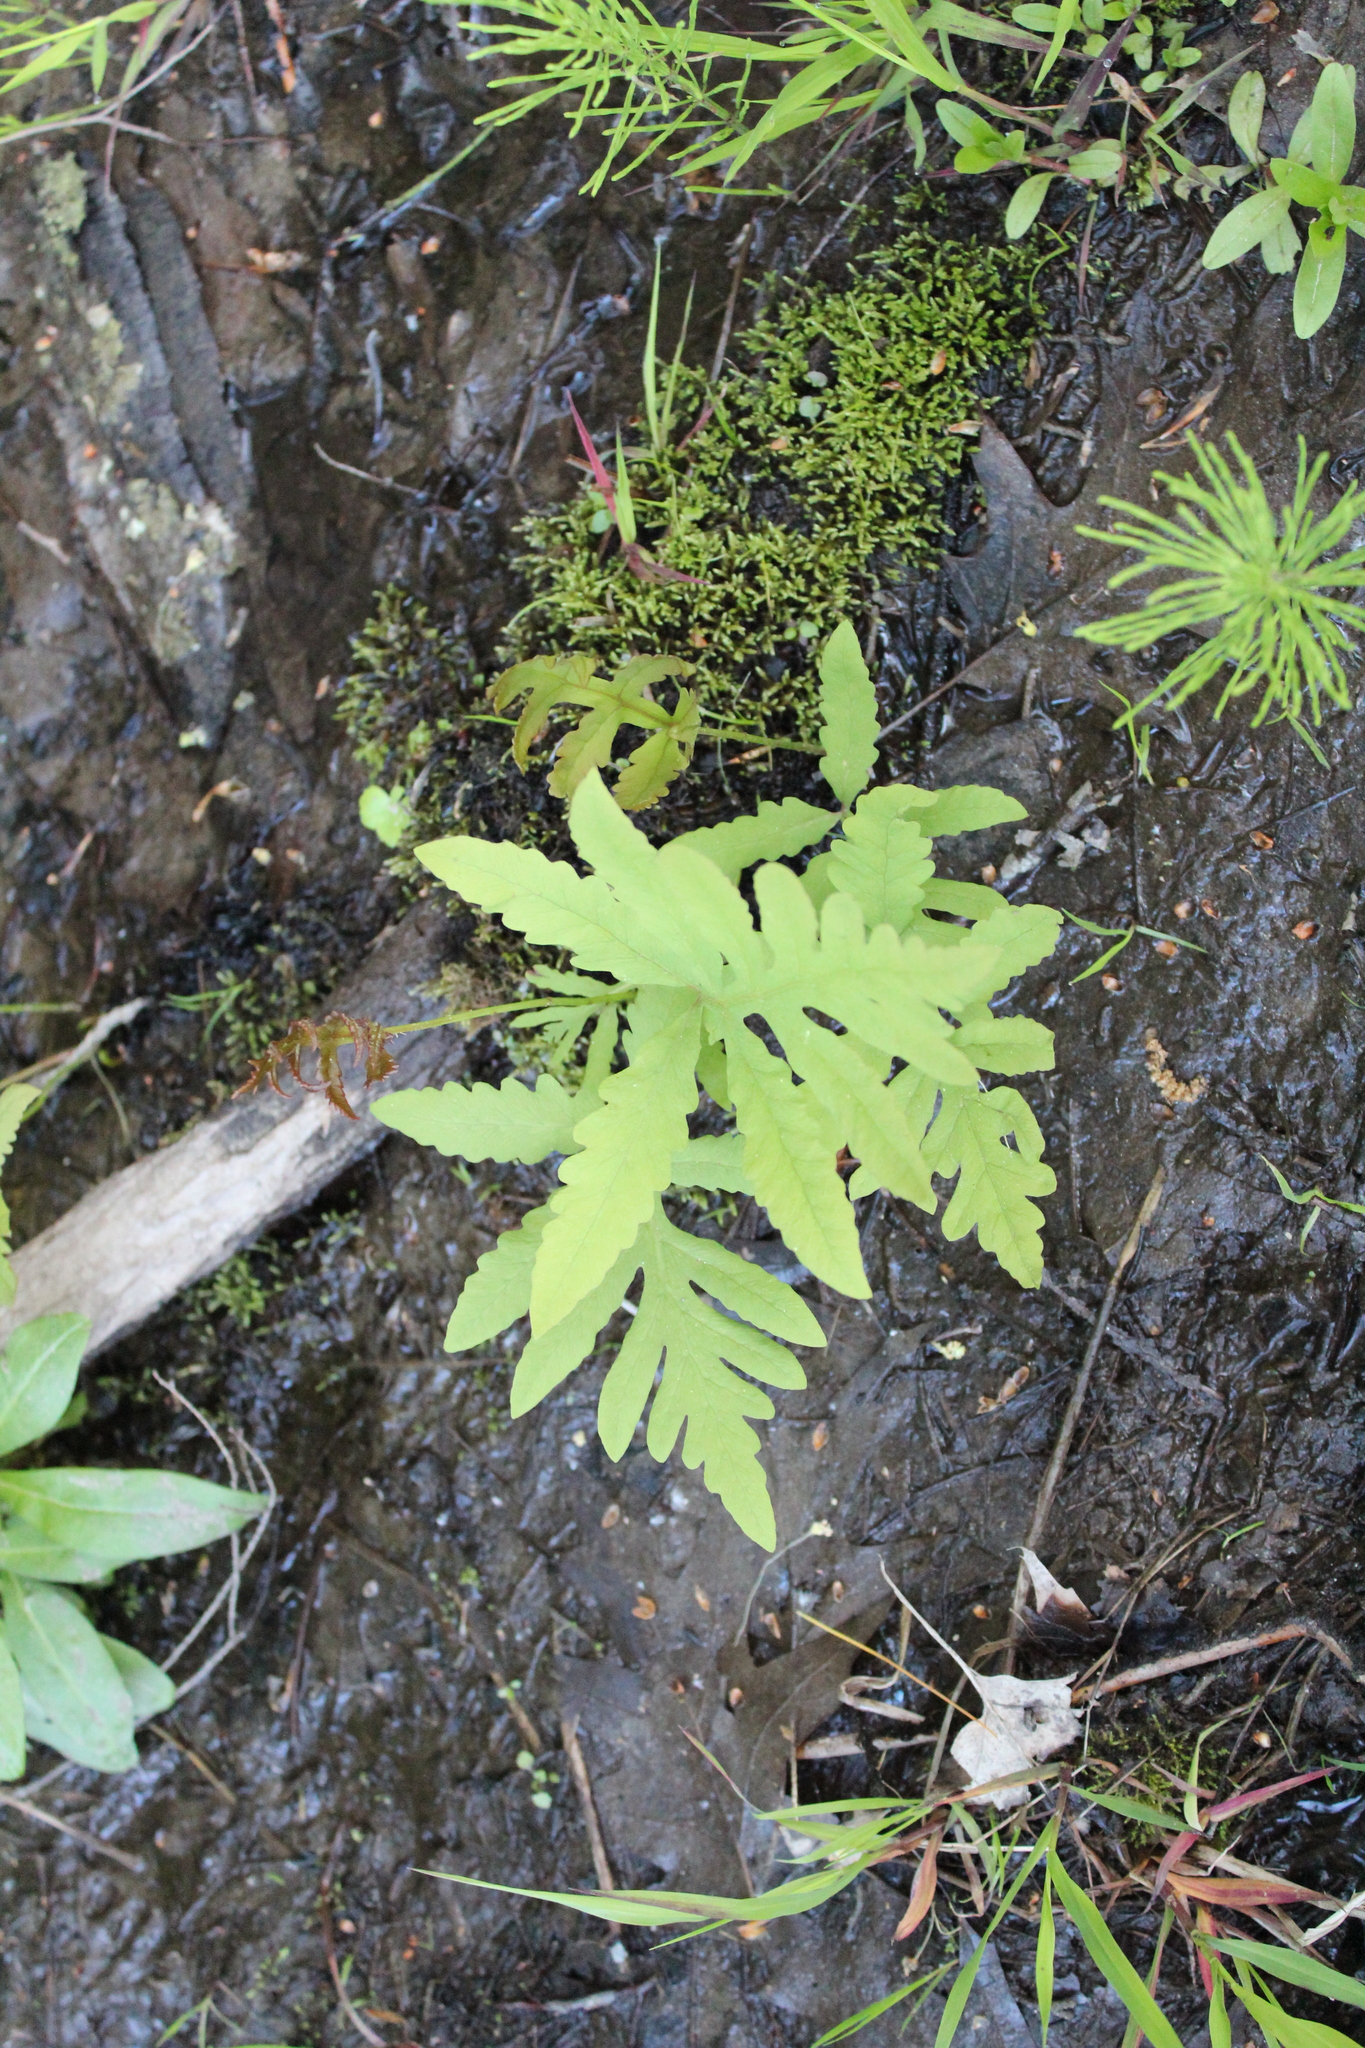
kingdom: Plantae
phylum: Tracheophyta
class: Polypodiopsida
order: Polypodiales
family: Onocleaceae
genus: Onoclea
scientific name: Onoclea sensibilis
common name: Sensitive fern
